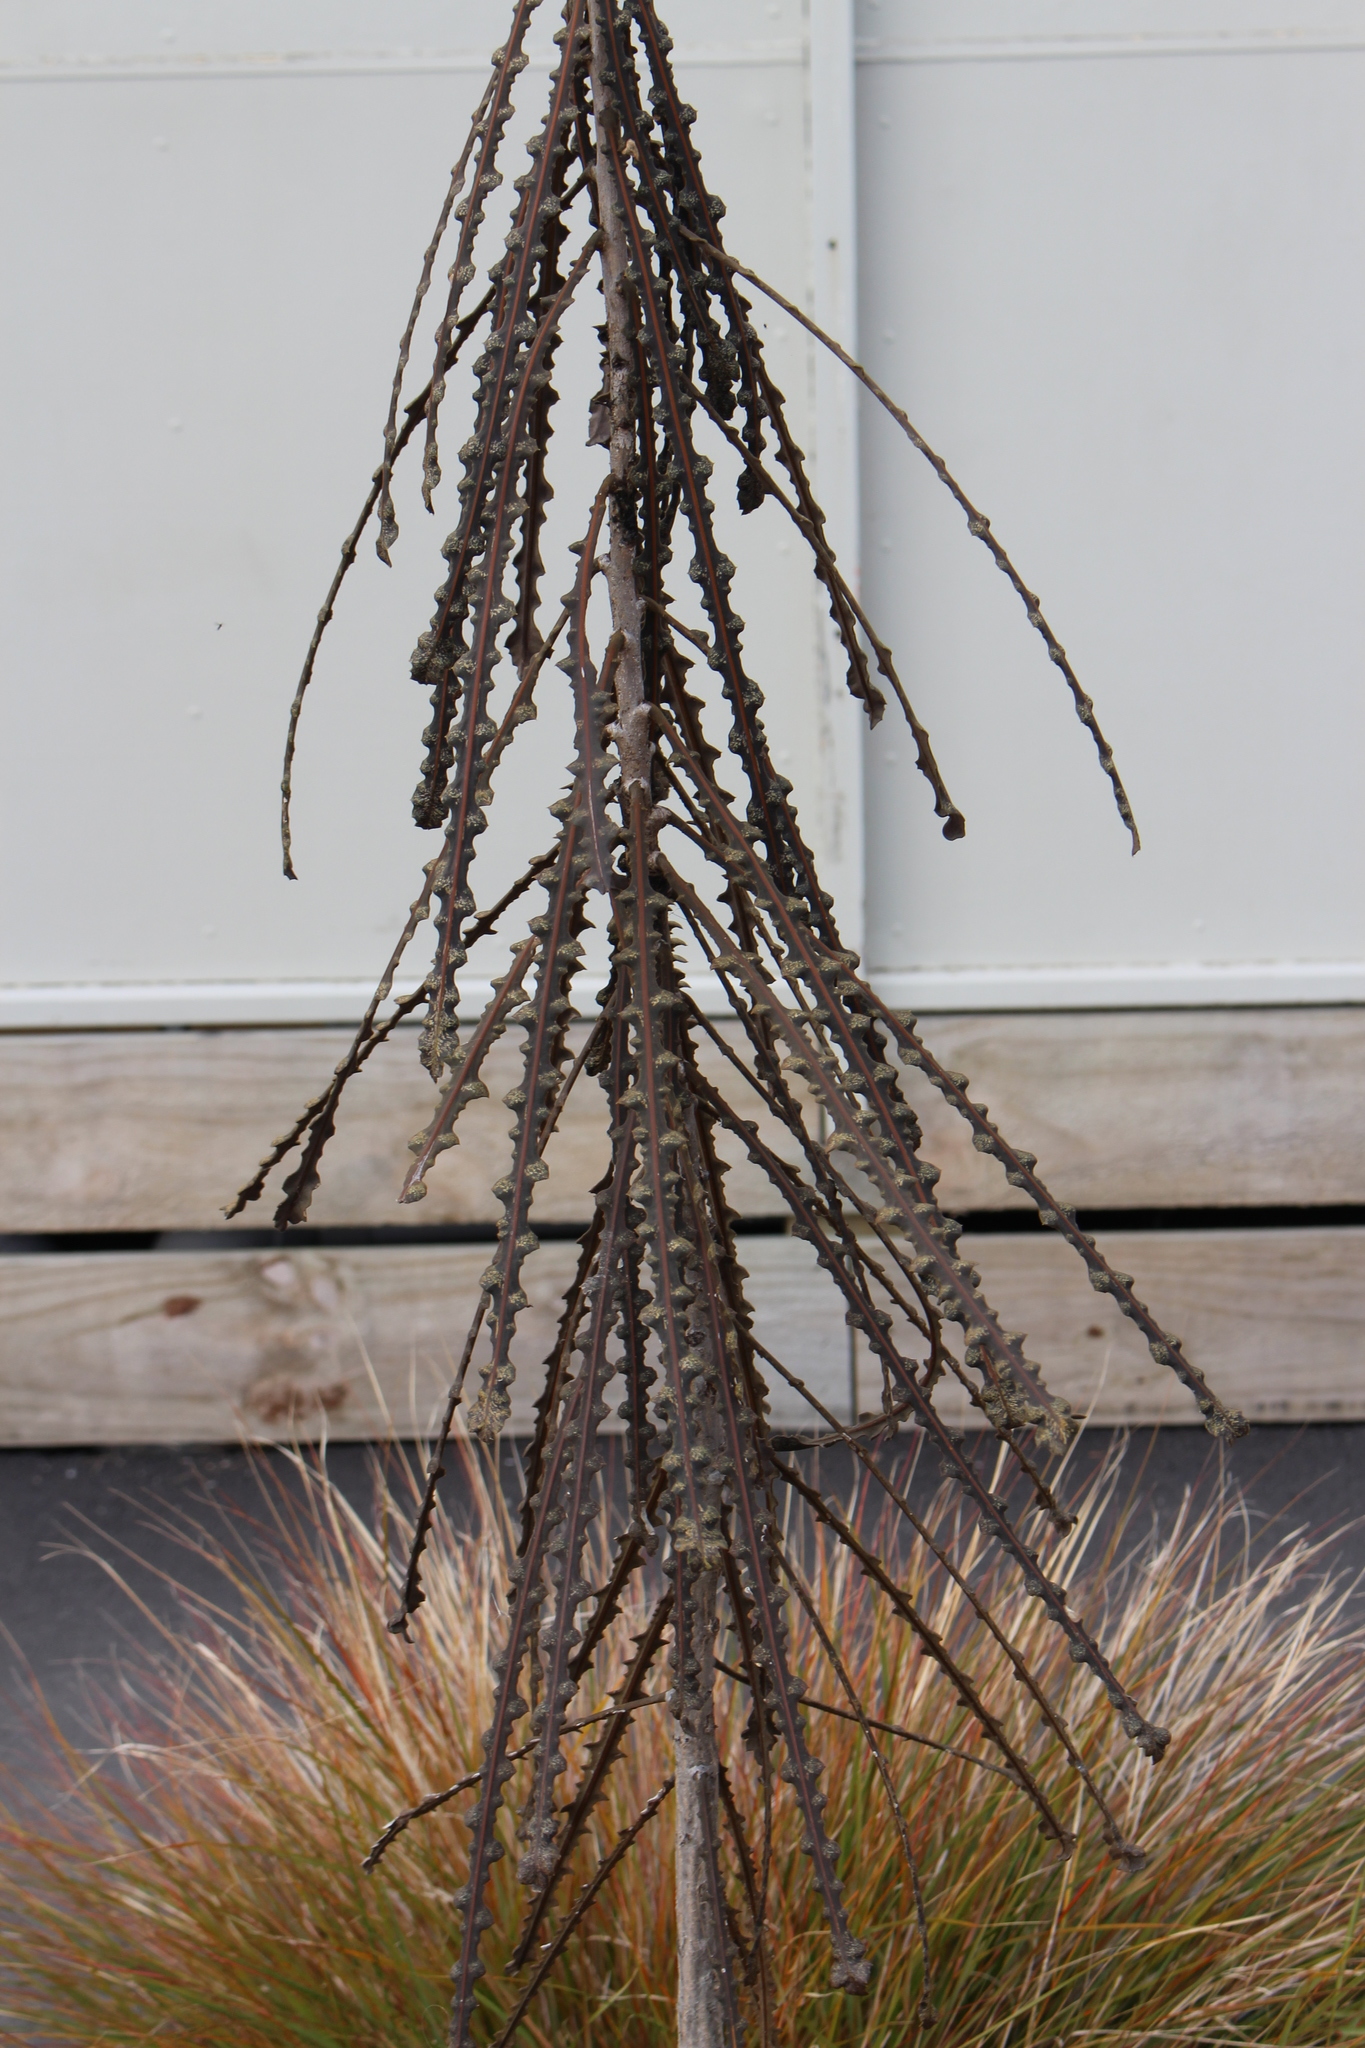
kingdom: Plantae
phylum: Tracheophyta
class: Magnoliopsida
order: Apiales
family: Araliaceae
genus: Pseudopanax
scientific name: Pseudopanax ferox
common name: Fierce lancewood
